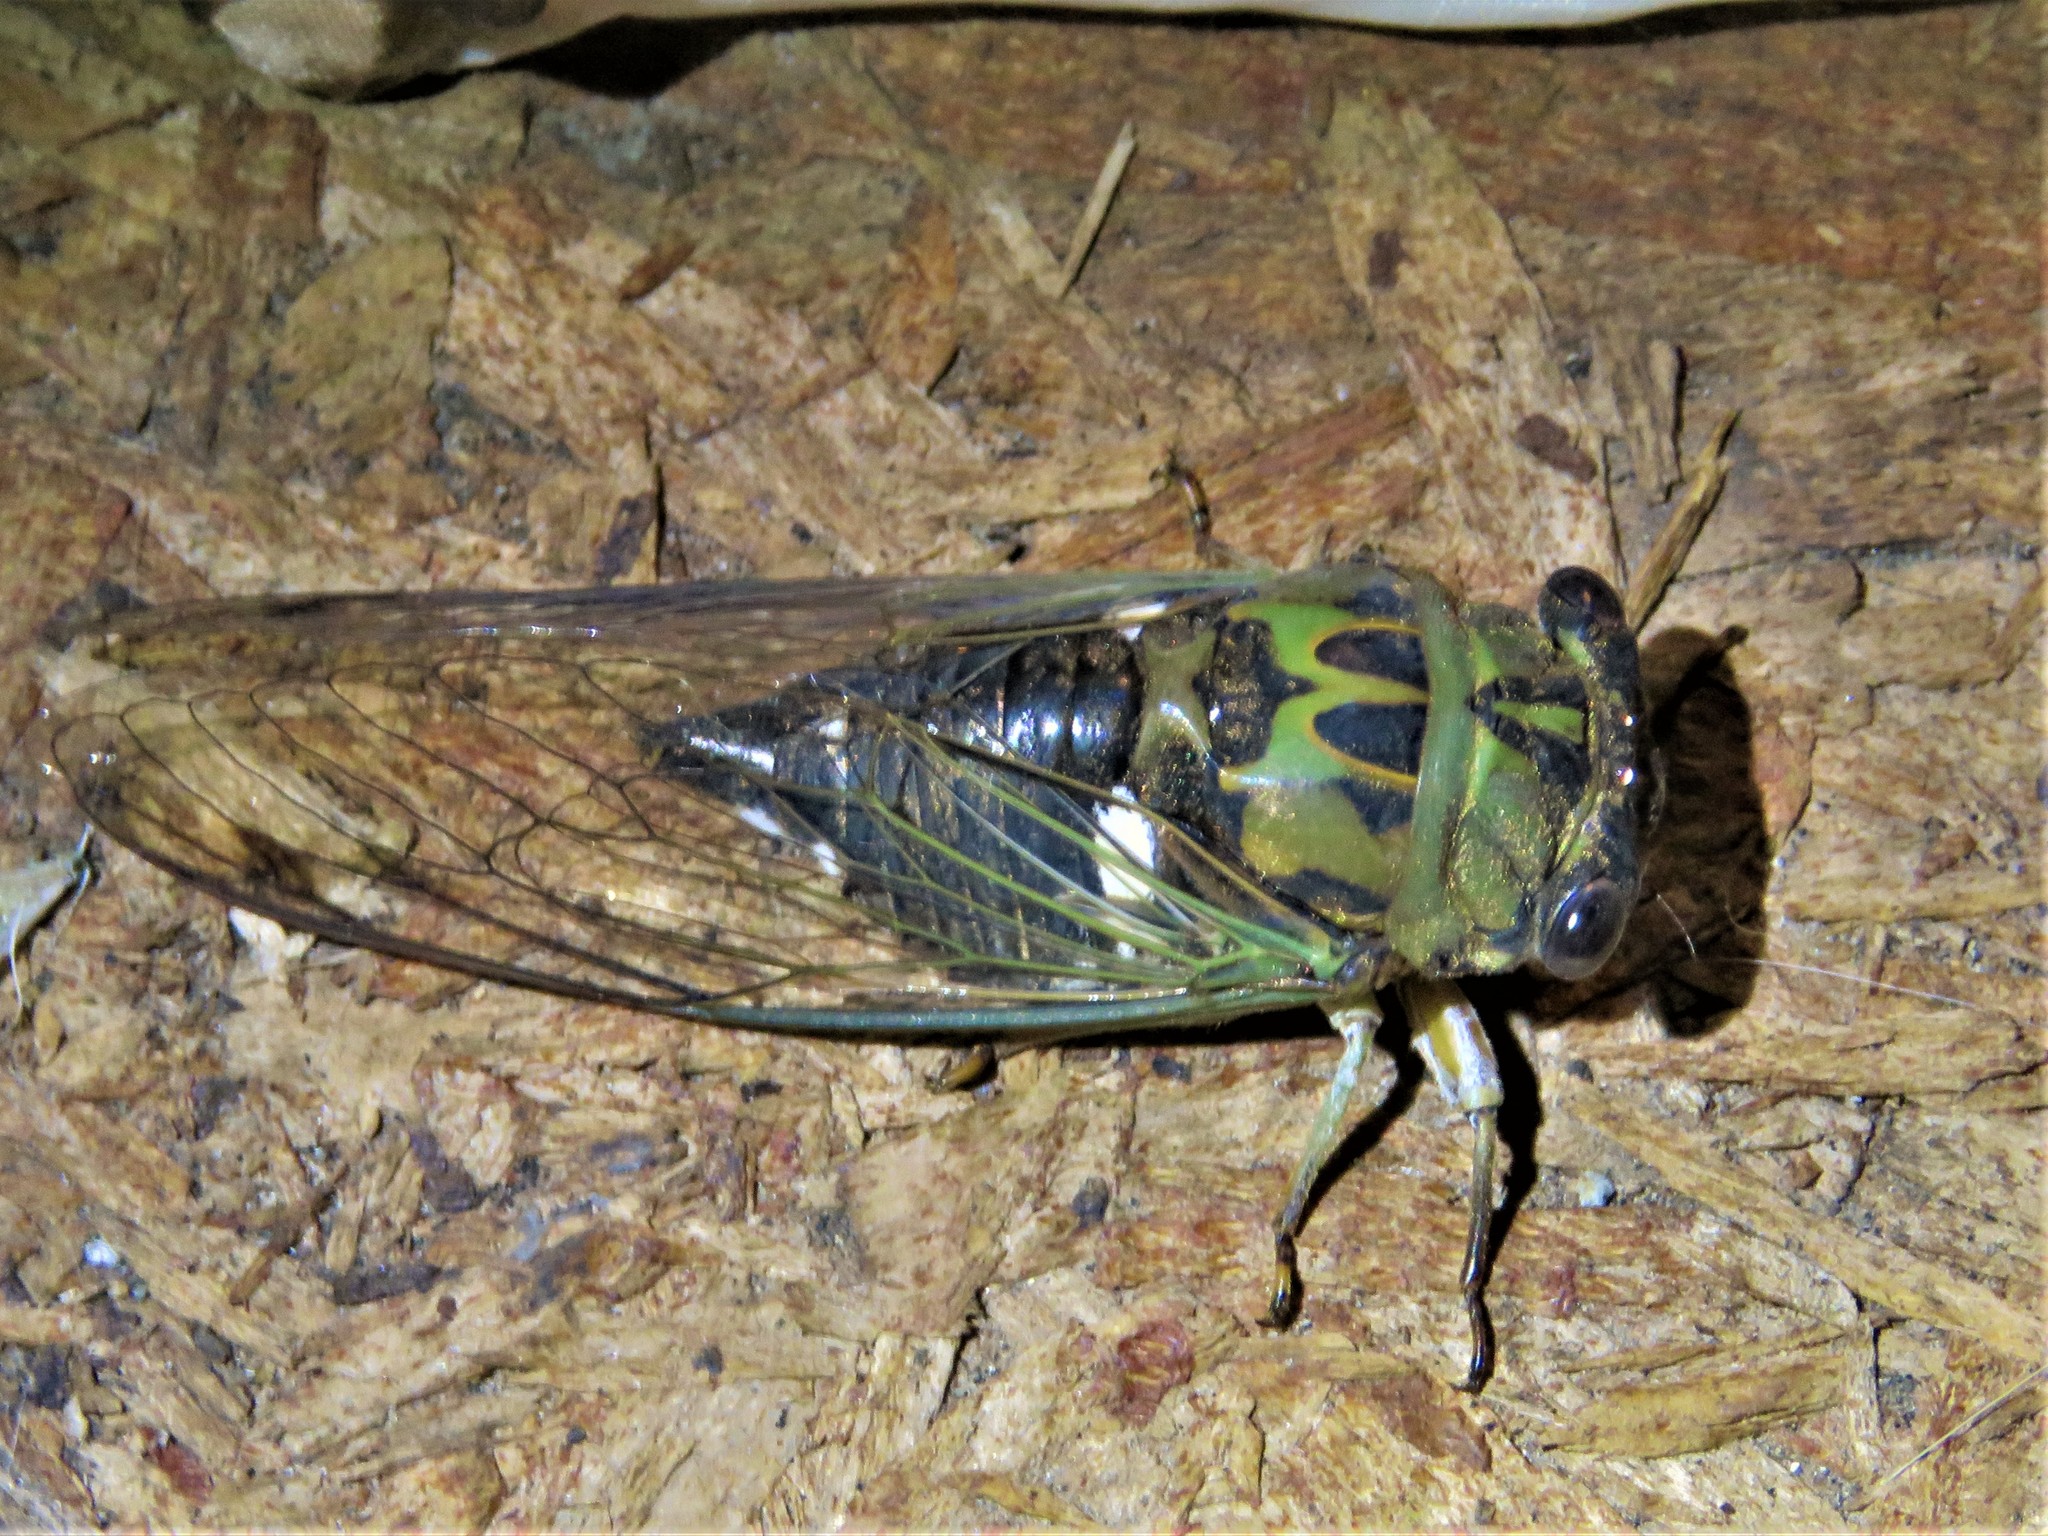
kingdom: Animalia
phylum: Arthropoda
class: Insecta
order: Hemiptera
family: Cicadidae
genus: Neotibicen
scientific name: Neotibicen pruinosus
